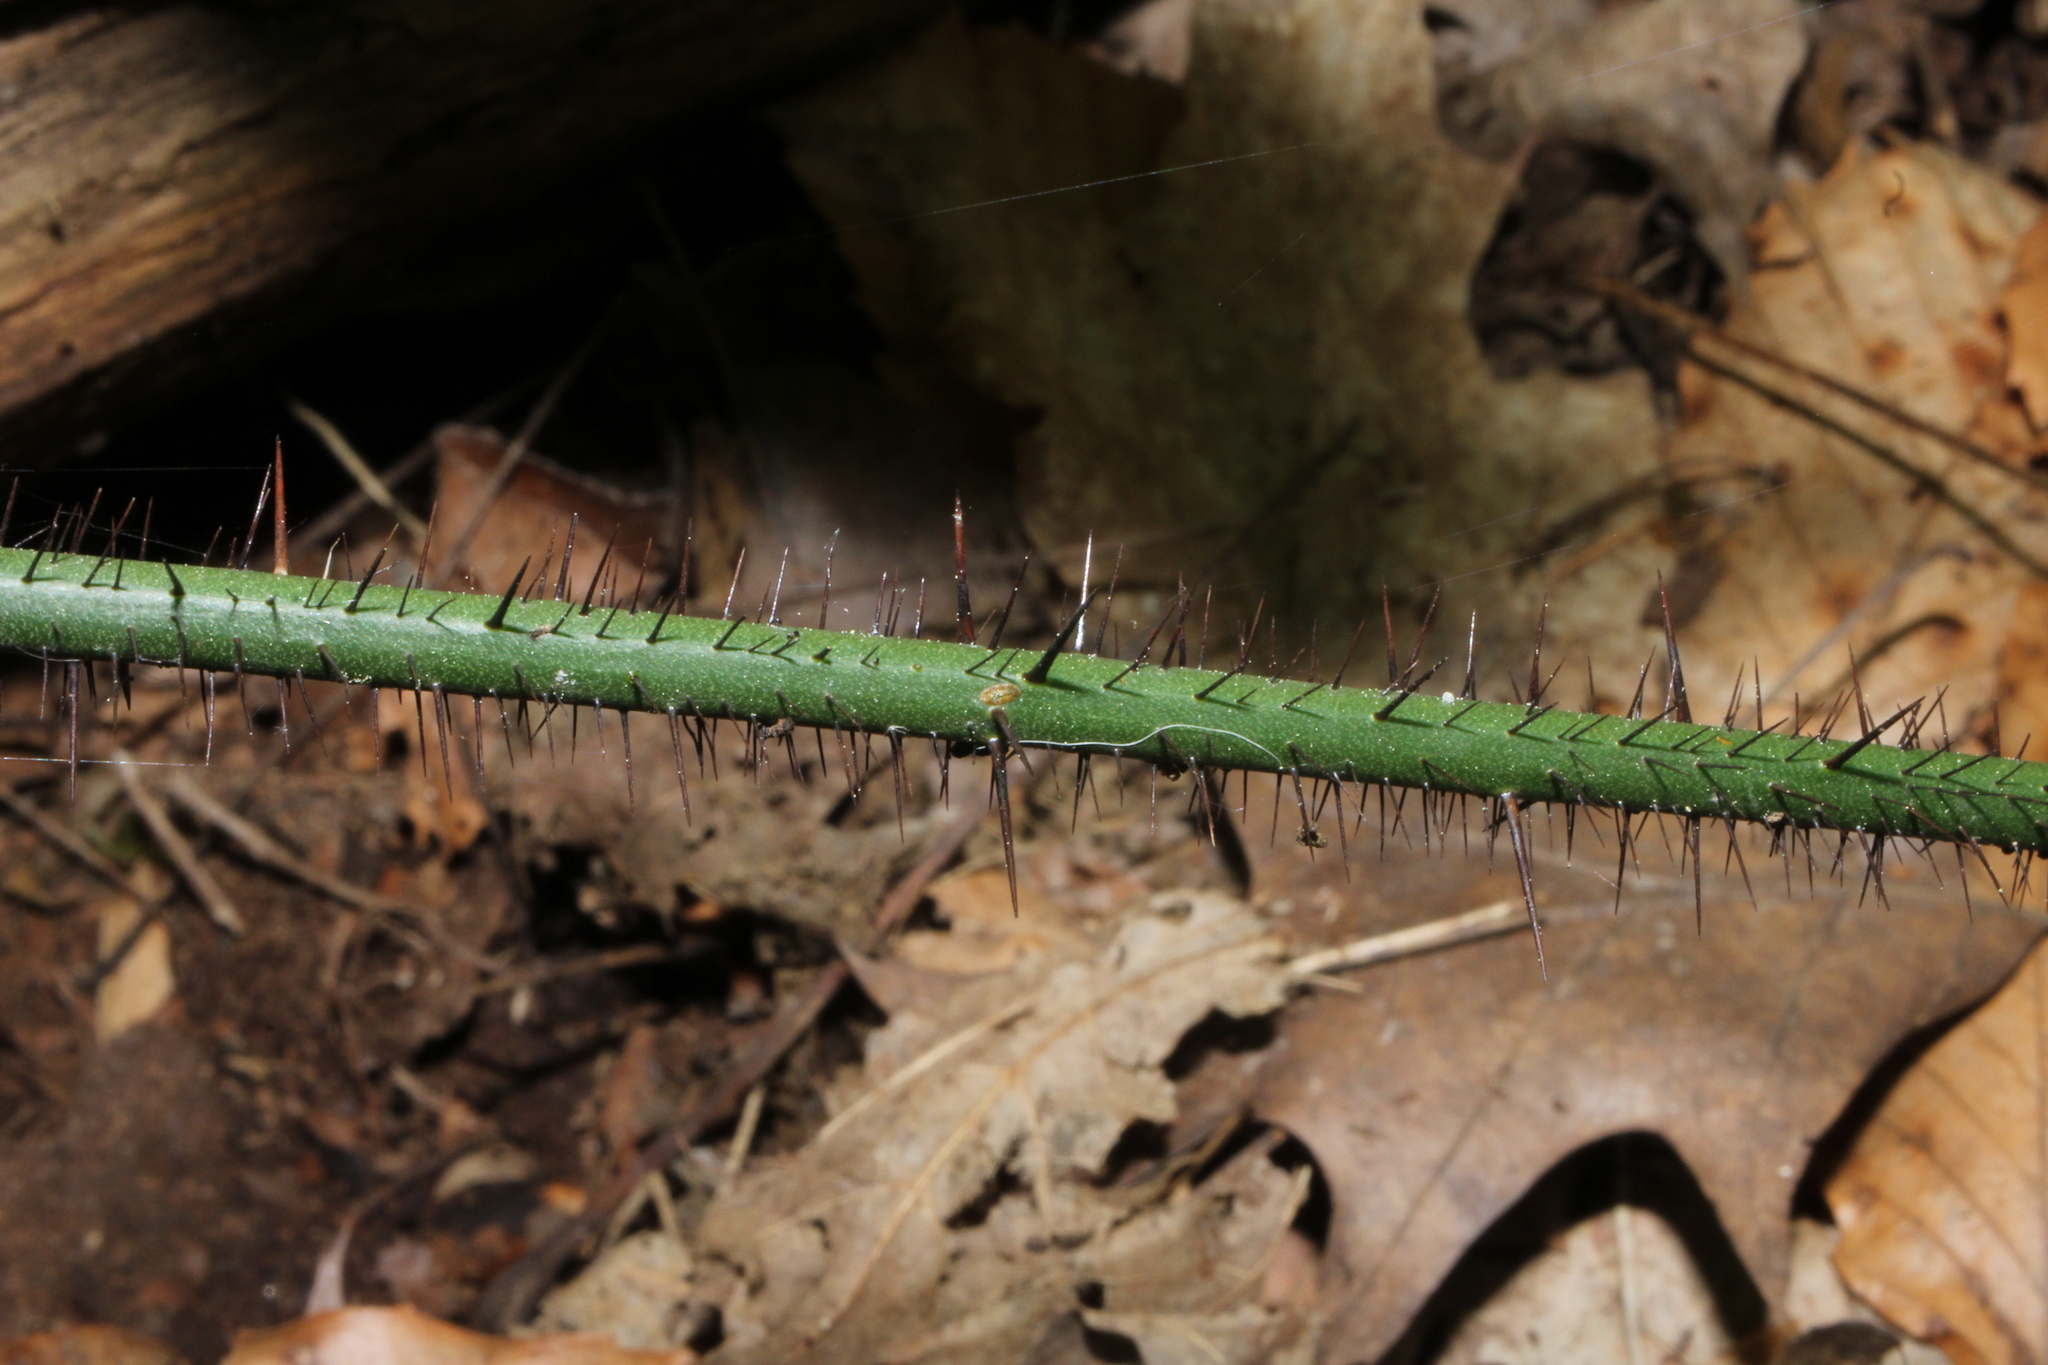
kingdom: Plantae
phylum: Tracheophyta
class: Liliopsida
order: Liliales
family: Smilacaceae
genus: Smilax
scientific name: Smilax tamnoides
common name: Hellfetter
